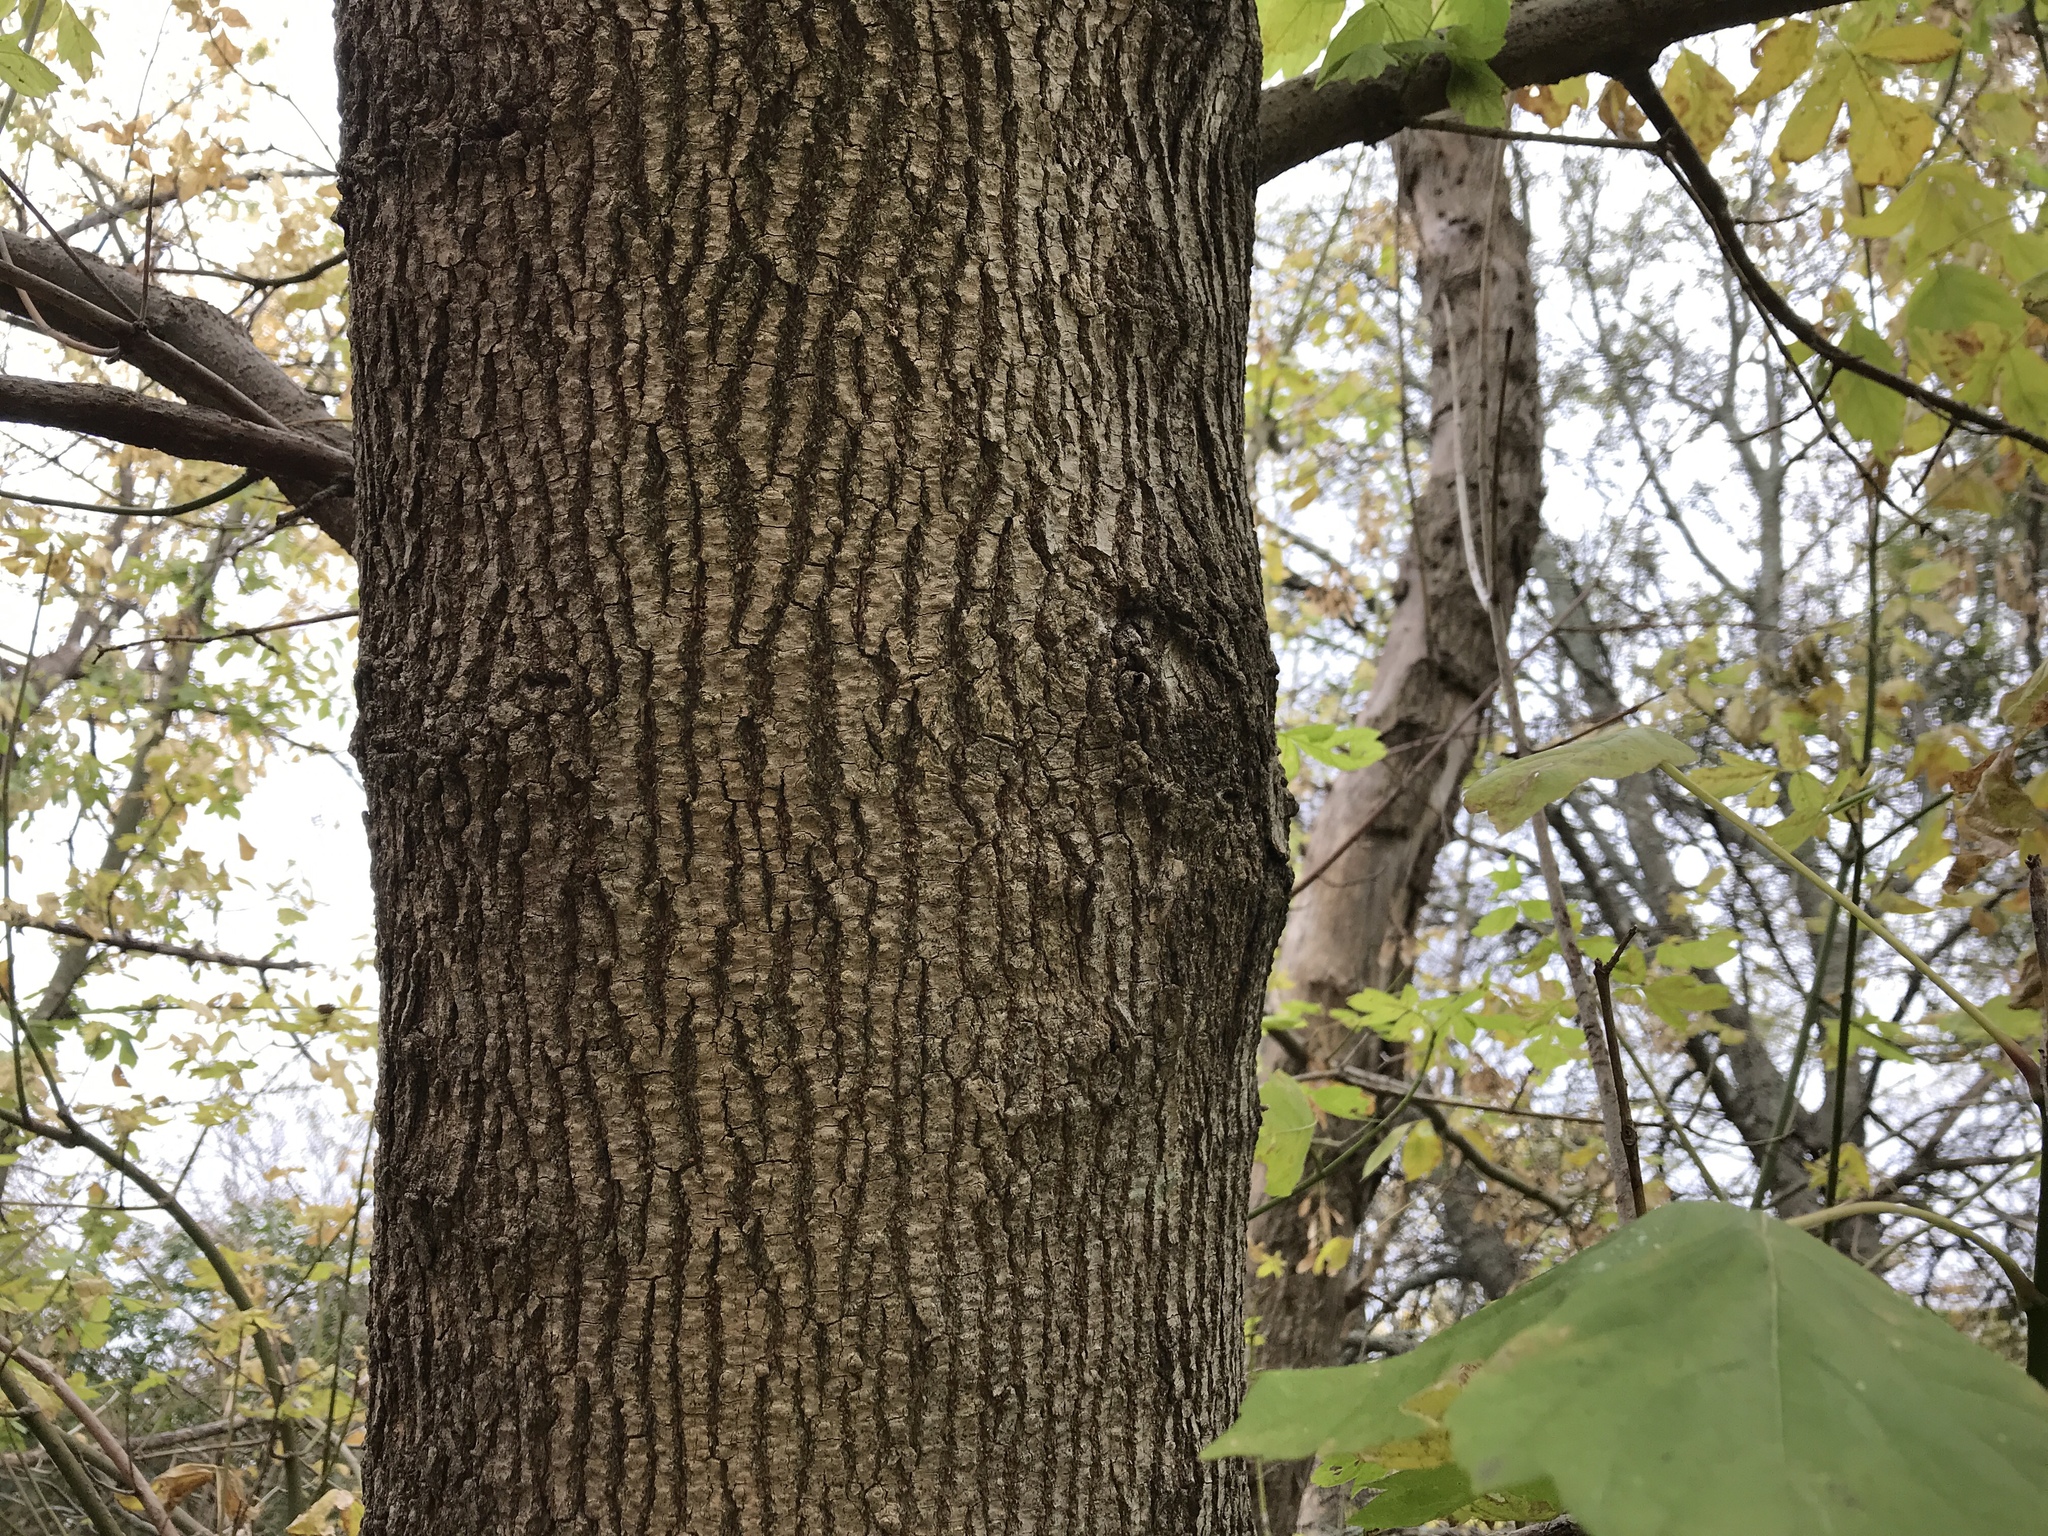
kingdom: Plantae
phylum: Tracheophyta
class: Magnoliopsida
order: Sapindales
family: Sapindaceae
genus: Acer
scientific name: Acer negundo
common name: Ashleaf maple
